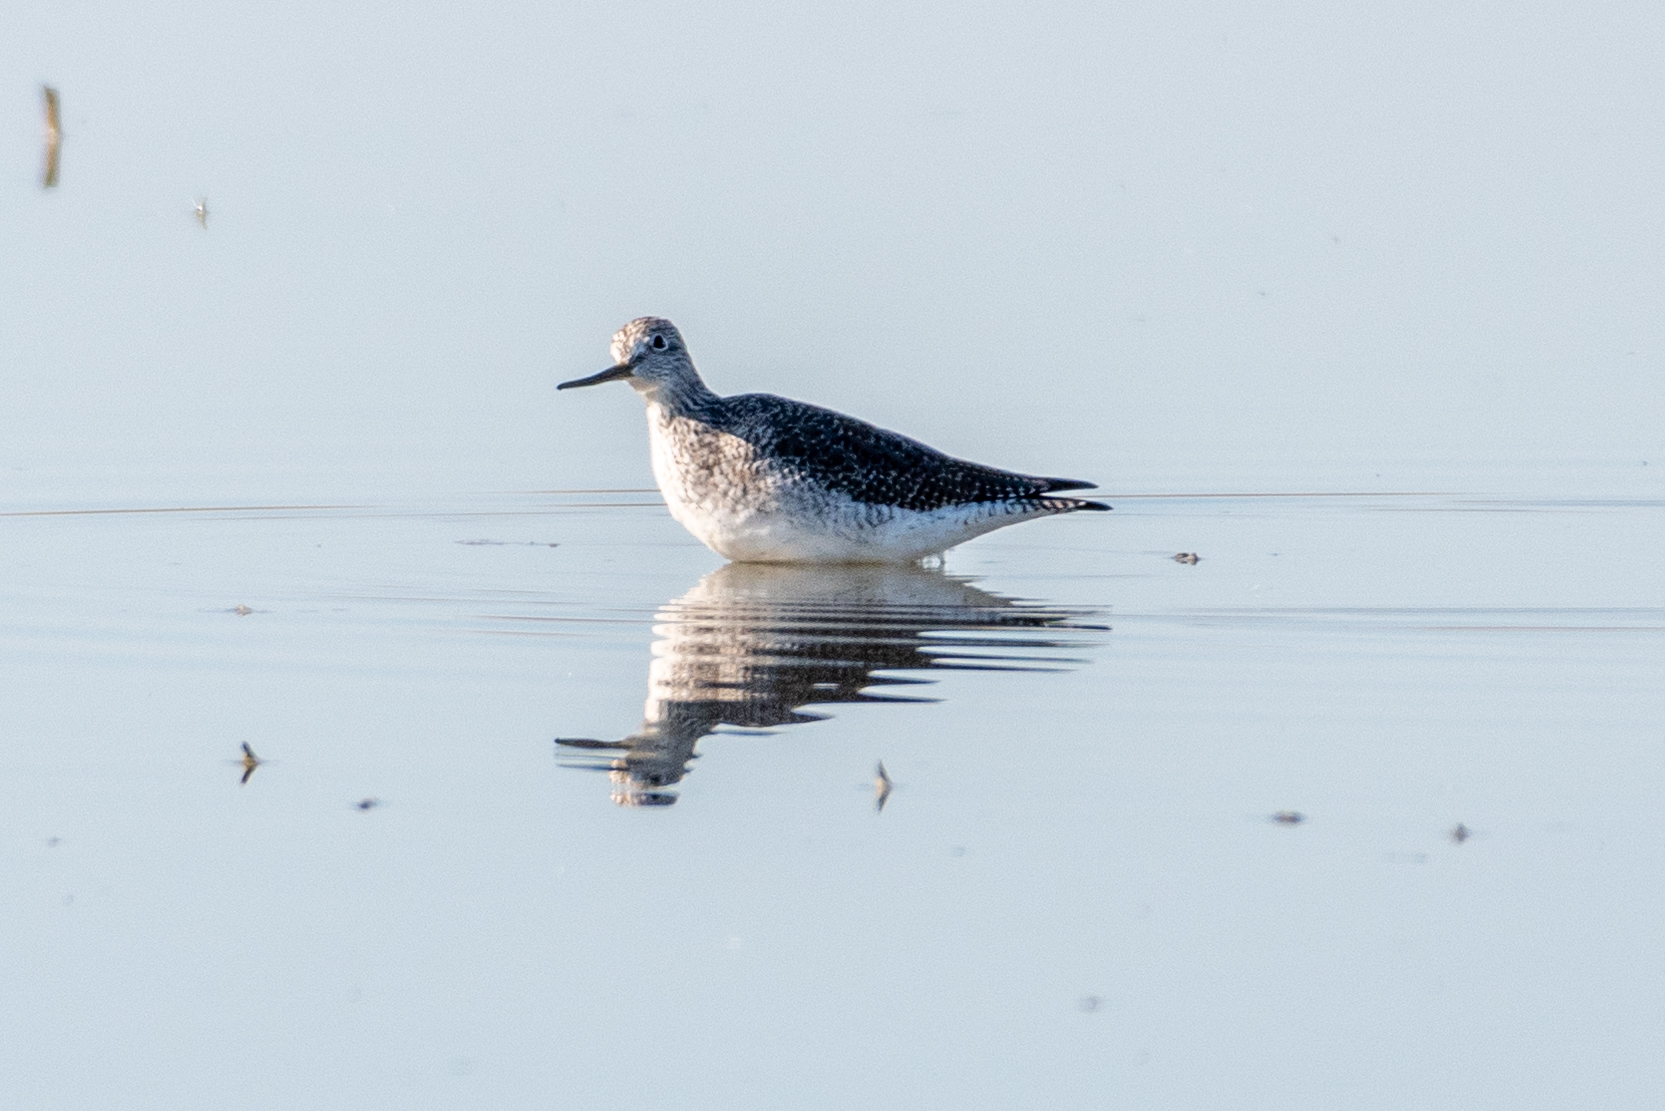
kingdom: Animalia
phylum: Chordata
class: Aves
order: Charadriiformes
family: Scolopacidae
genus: Tringa
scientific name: Tringa melanoleuca
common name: Greater yellowlegs
